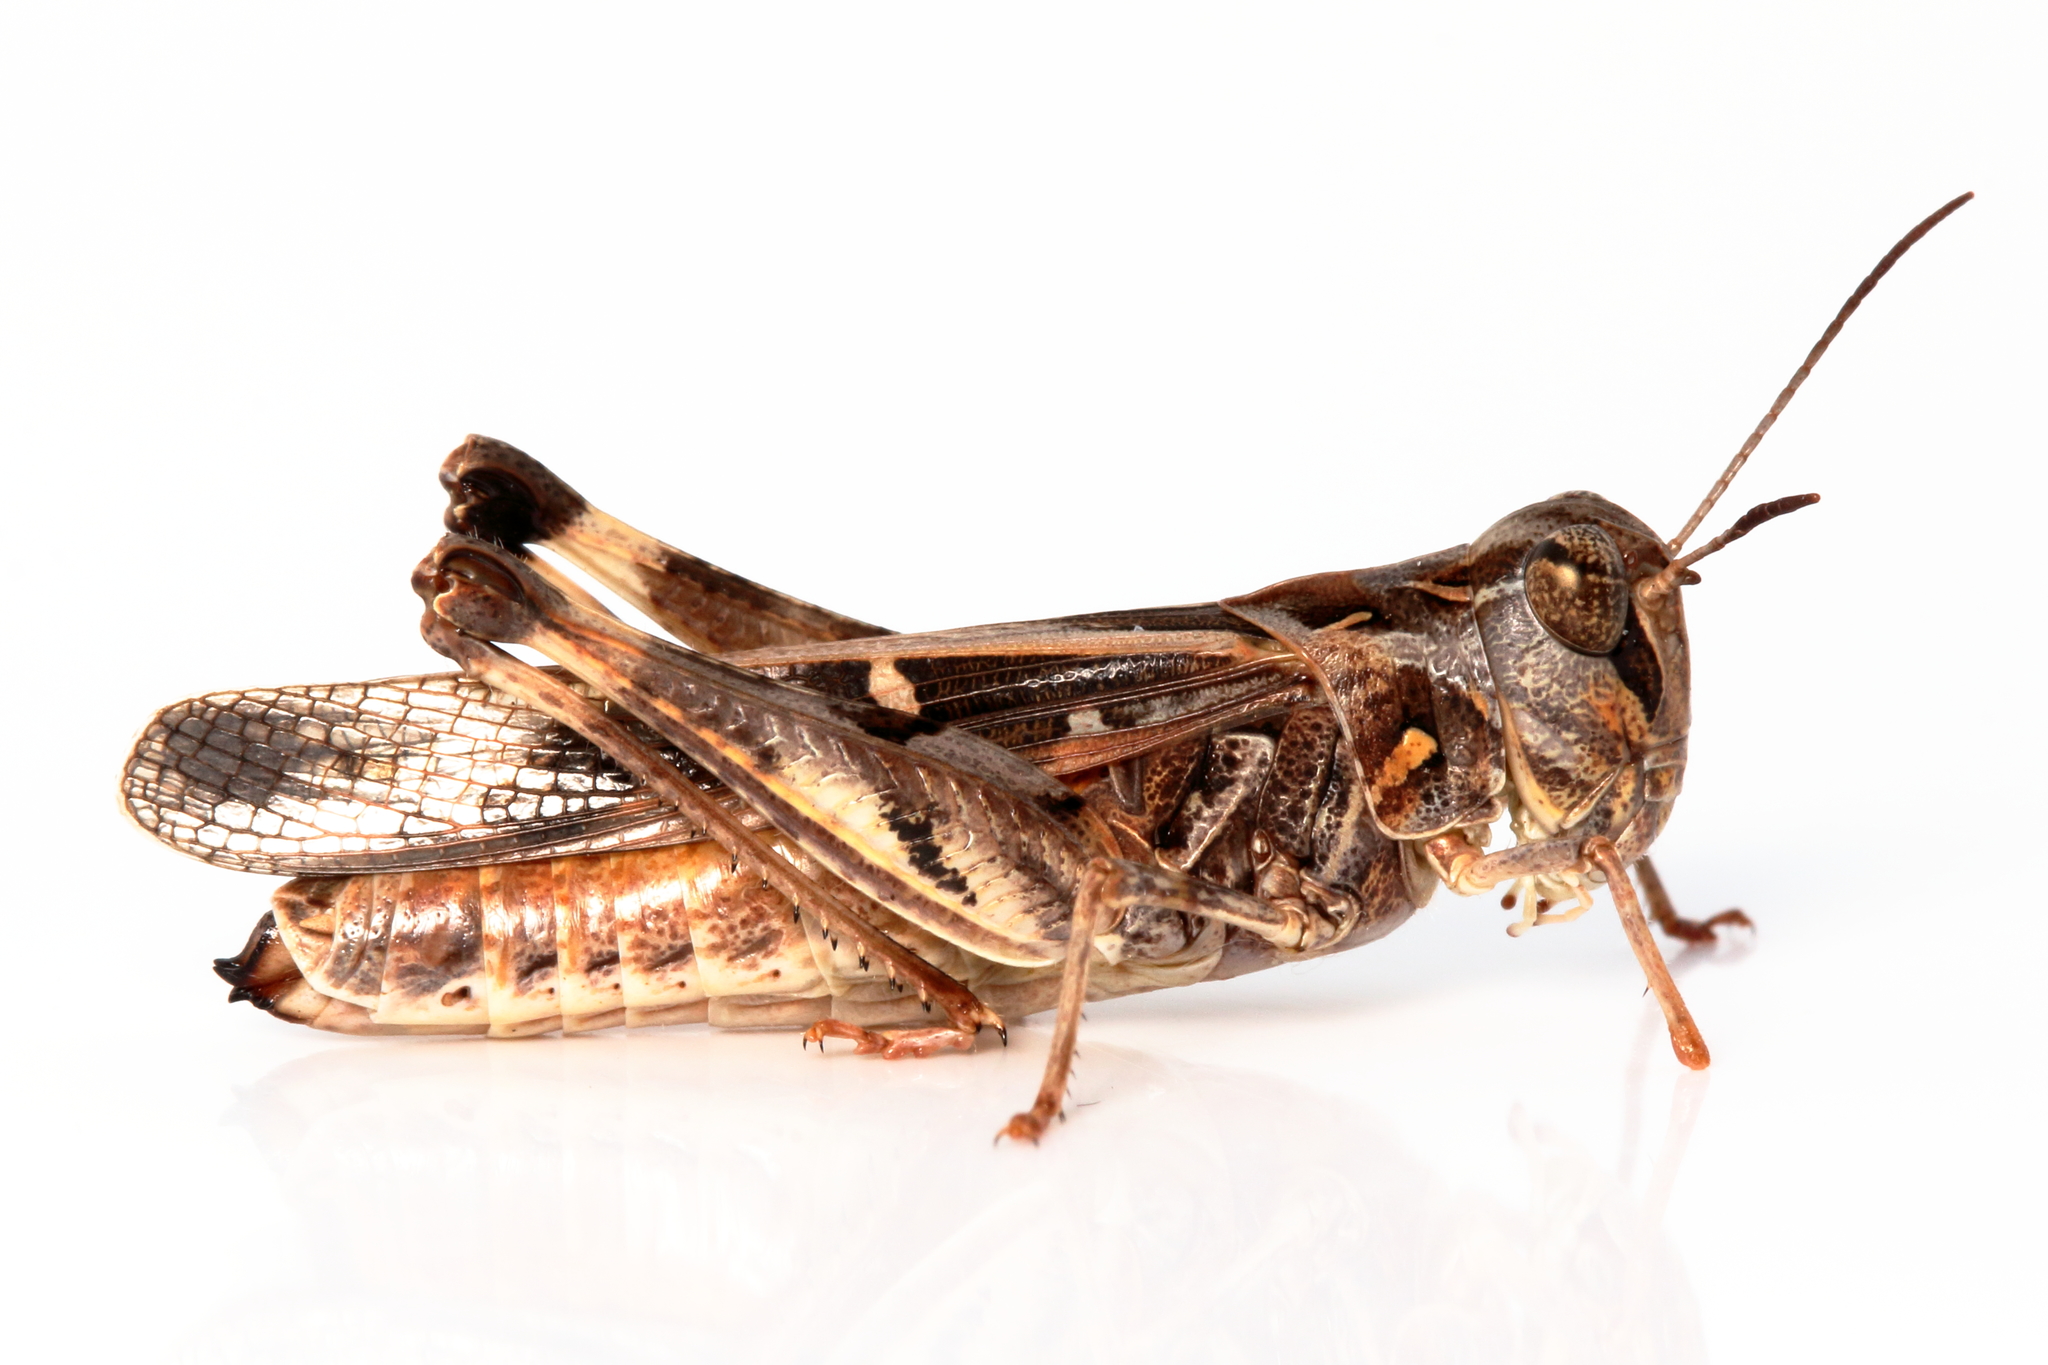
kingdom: Animalia
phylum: Arthropoda
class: Insecta
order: Orthoptera
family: Acrididae
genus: Oedaleus
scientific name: Oedaleus australis
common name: Eastern oedaleus
